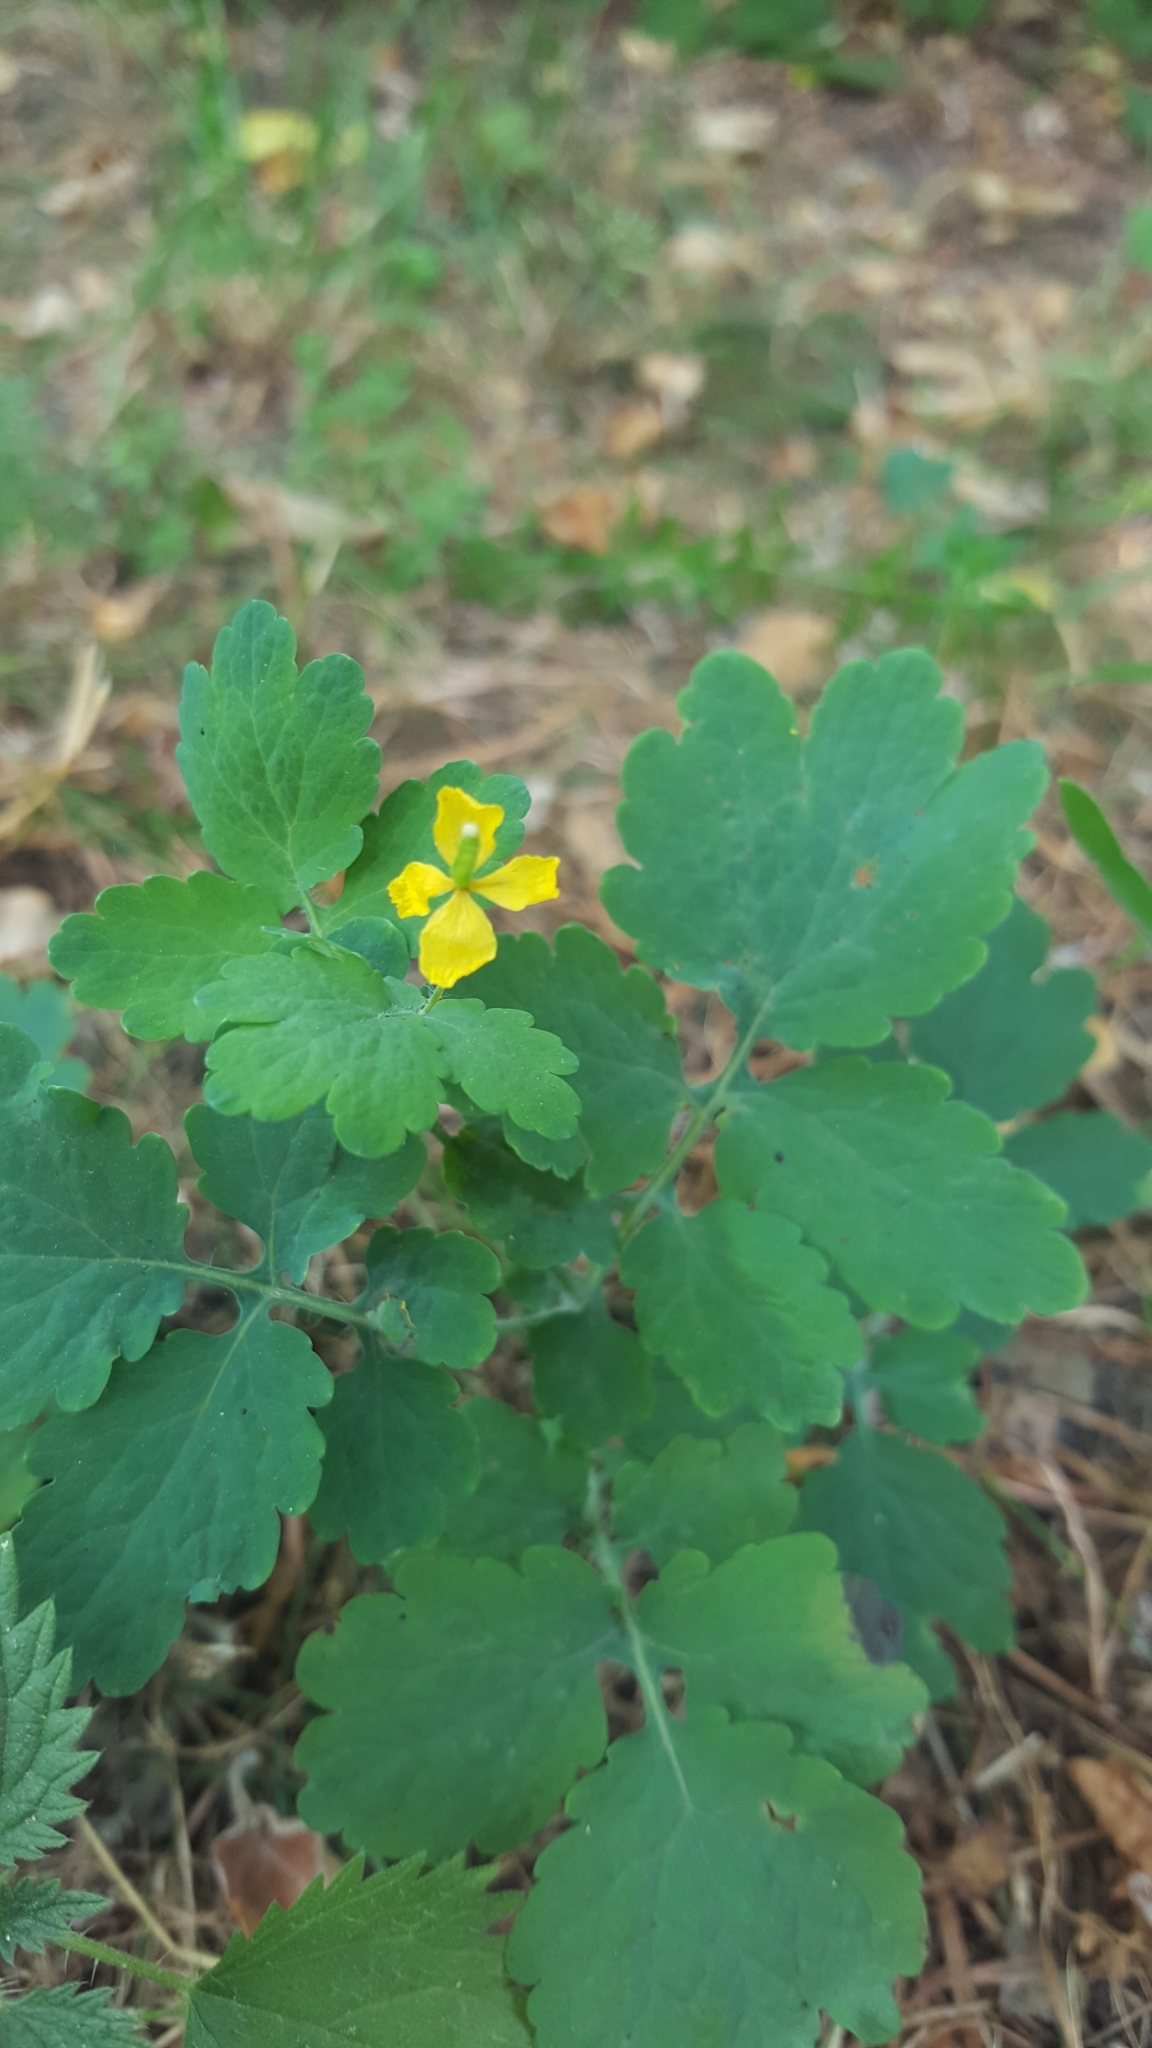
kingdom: Plantae
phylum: Tracheophyta
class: Magnoliopsida
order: Ranunculales
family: Papaveraceae
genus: Chelidonium
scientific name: Chelidonium majus
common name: Greater celandine
